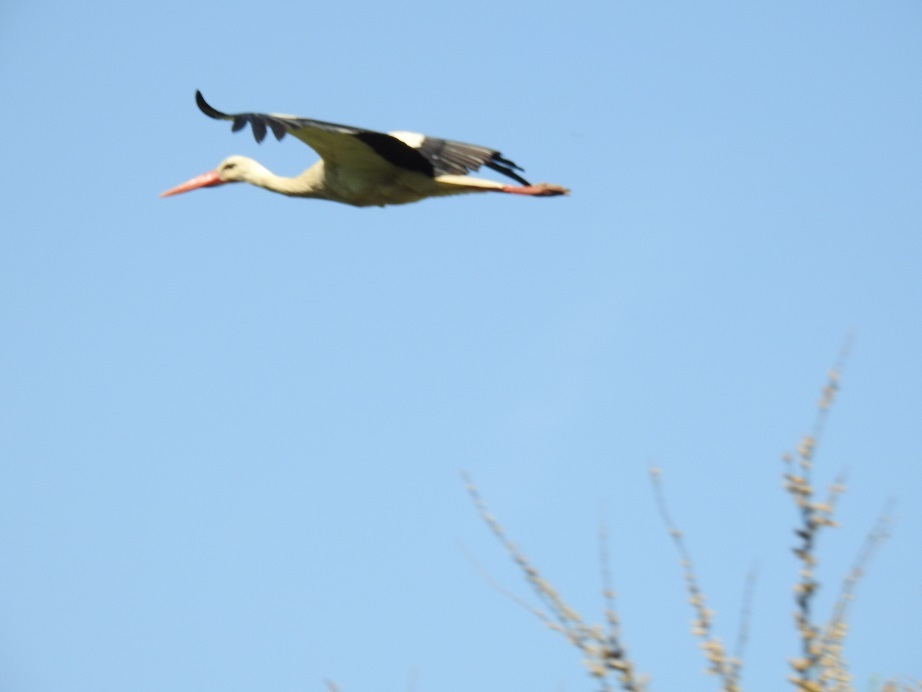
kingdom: Animalia
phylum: Chordata
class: Aves
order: Ciconiiformes
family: Ciconiidae
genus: Ciconia
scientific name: Ciconia ciconia
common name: White stork
